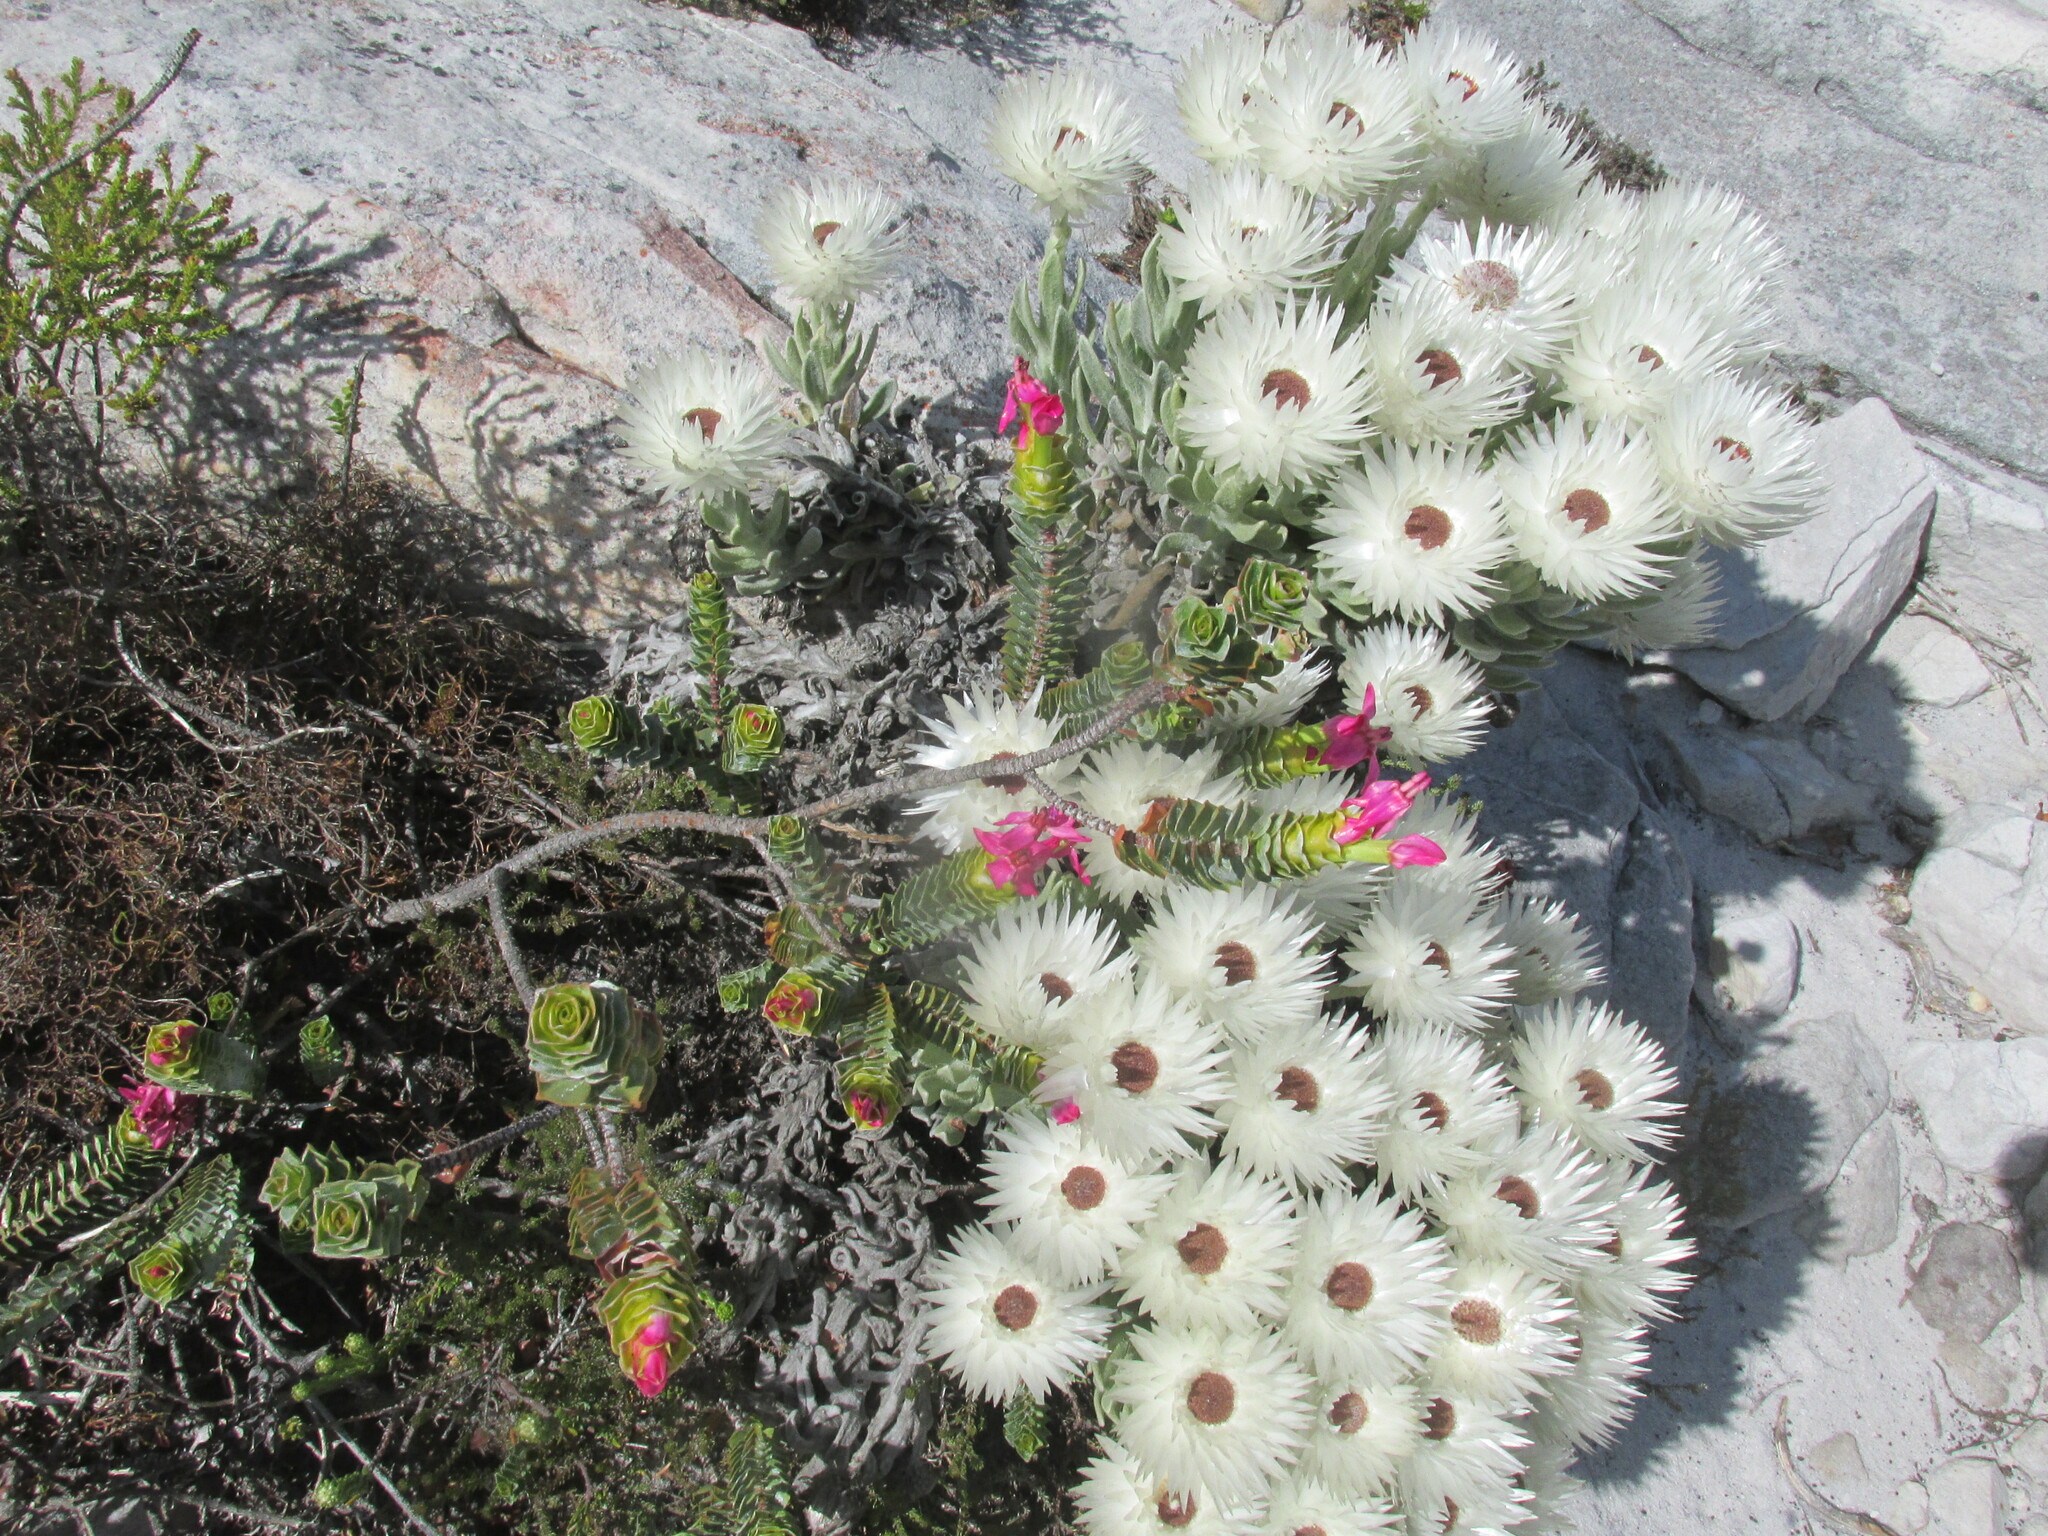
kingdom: Plantae
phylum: Tracheophyta
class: Magnoliopsida
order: Myrtales
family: Penaeaceae
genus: Saltera
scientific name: Saltera sarcocolla
